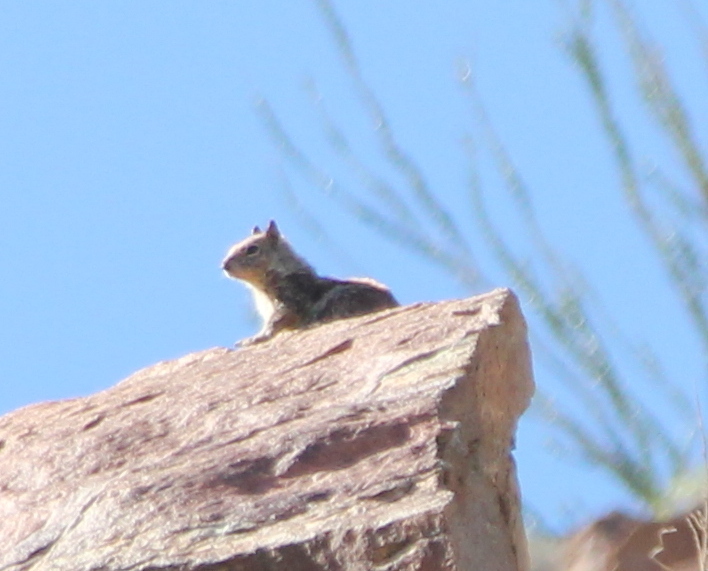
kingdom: Animalia
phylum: Chordata
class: Mammalia
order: Rodentia
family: Sciuridae
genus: Otospermophilus
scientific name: Otospermophilus beecheyi
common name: California ground squirrel
